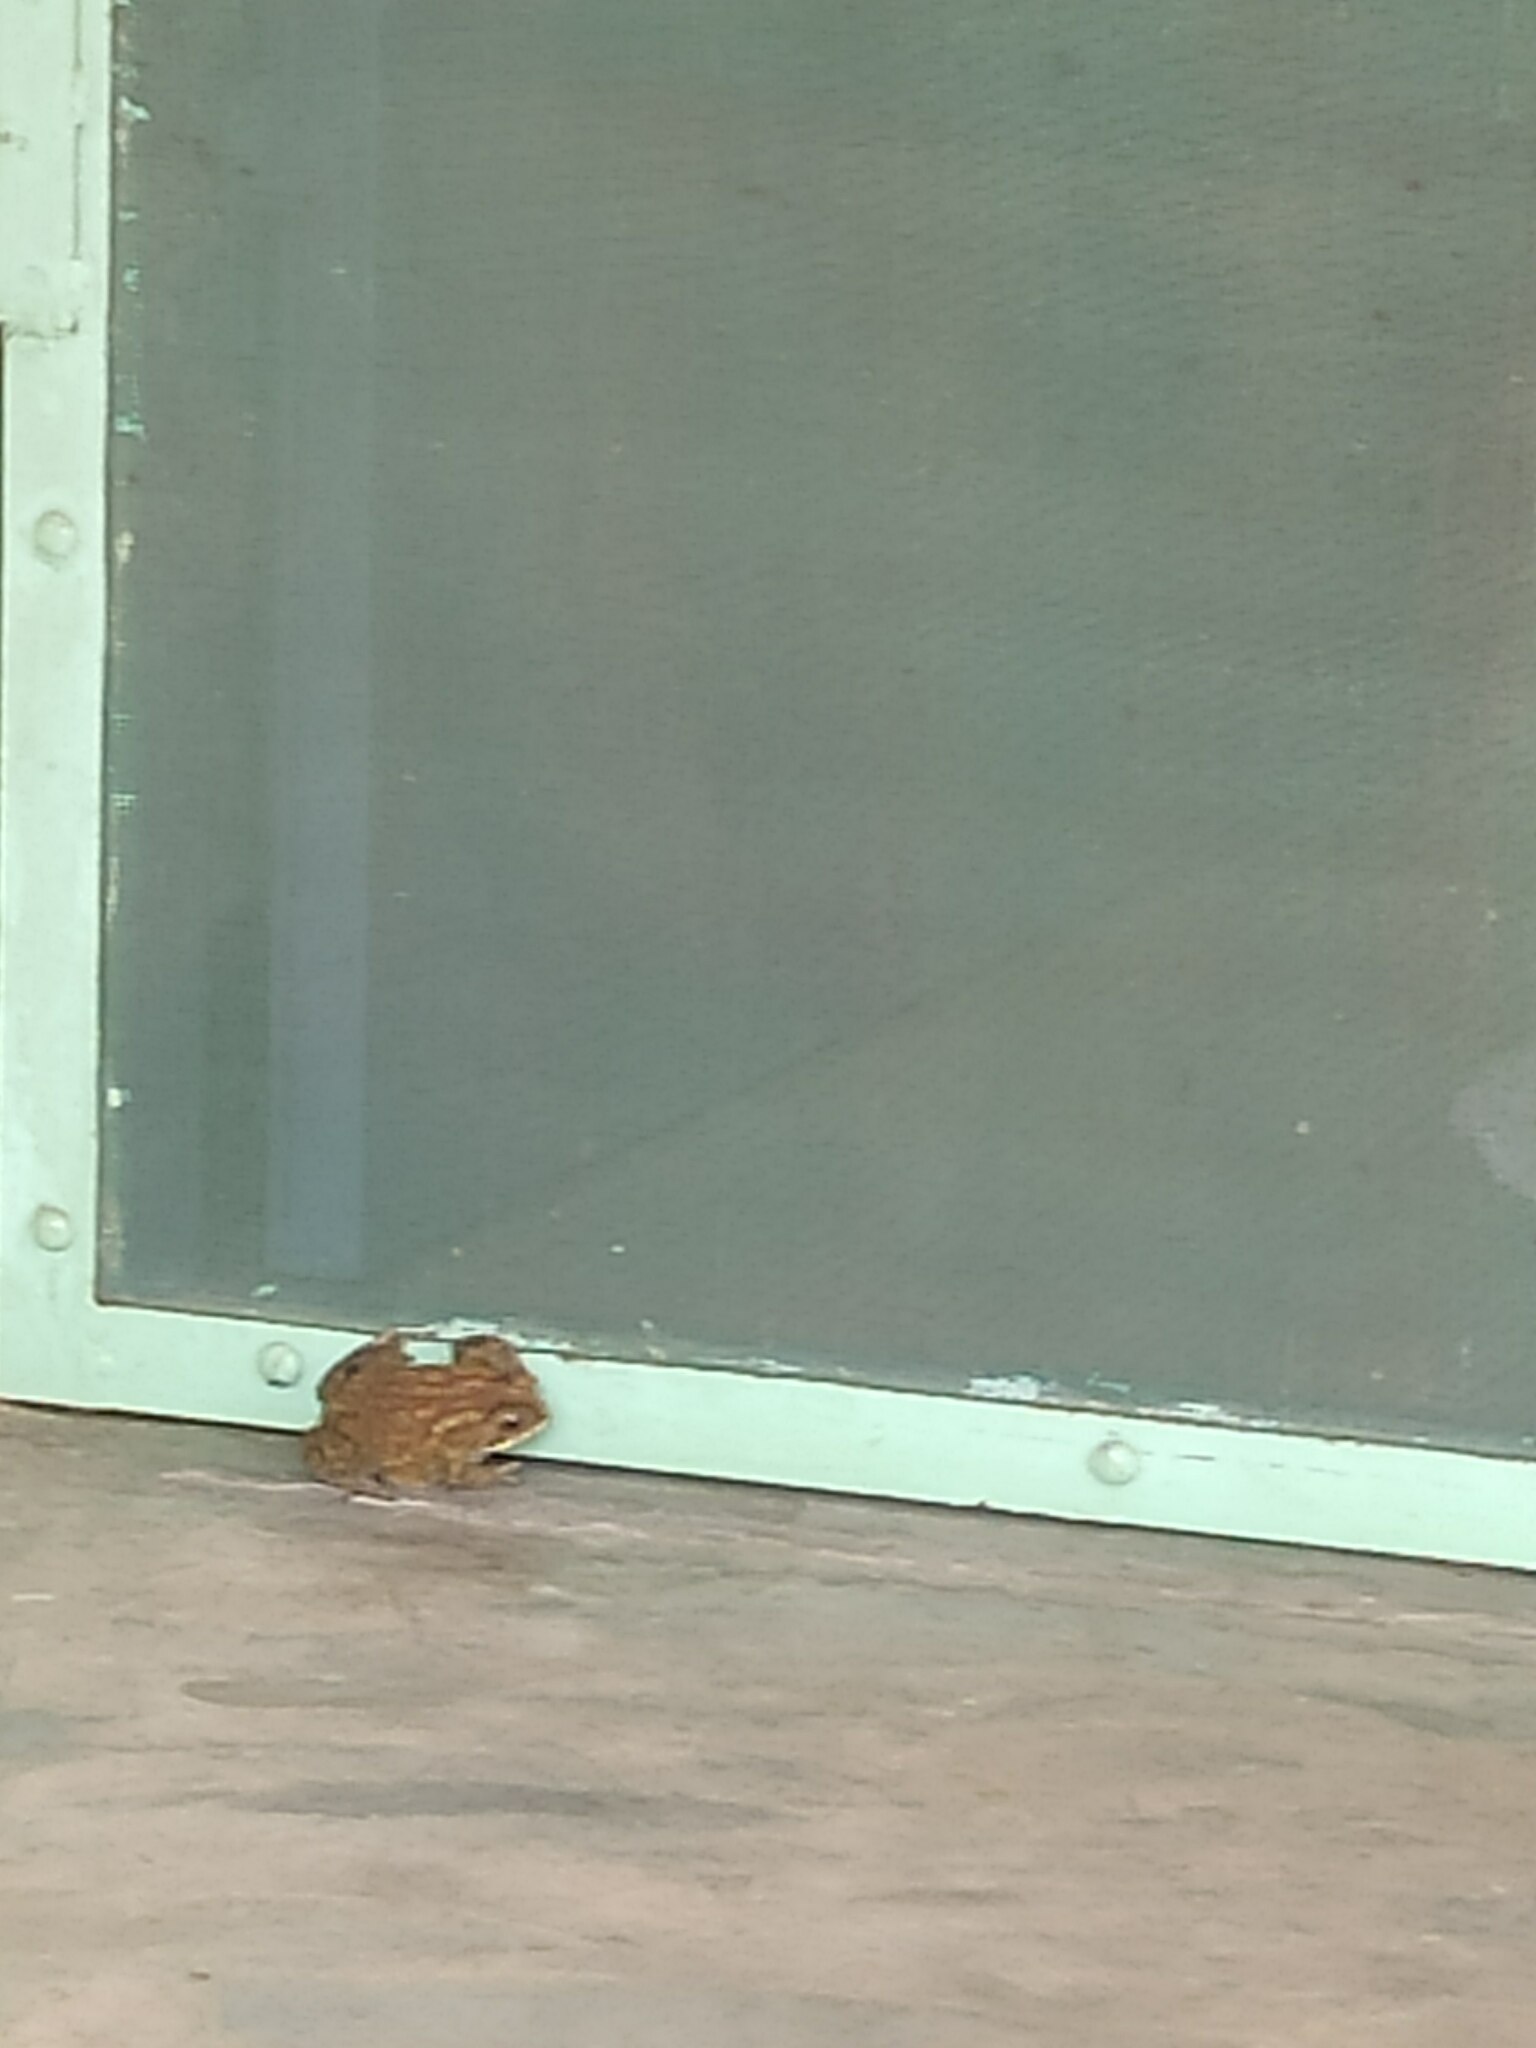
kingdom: Animalia
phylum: Chordata
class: Amphibia
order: Anura
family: Bufonidae
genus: Duttaphrynus
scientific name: Duttaphrynus melanostictus
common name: Common sunda toad
